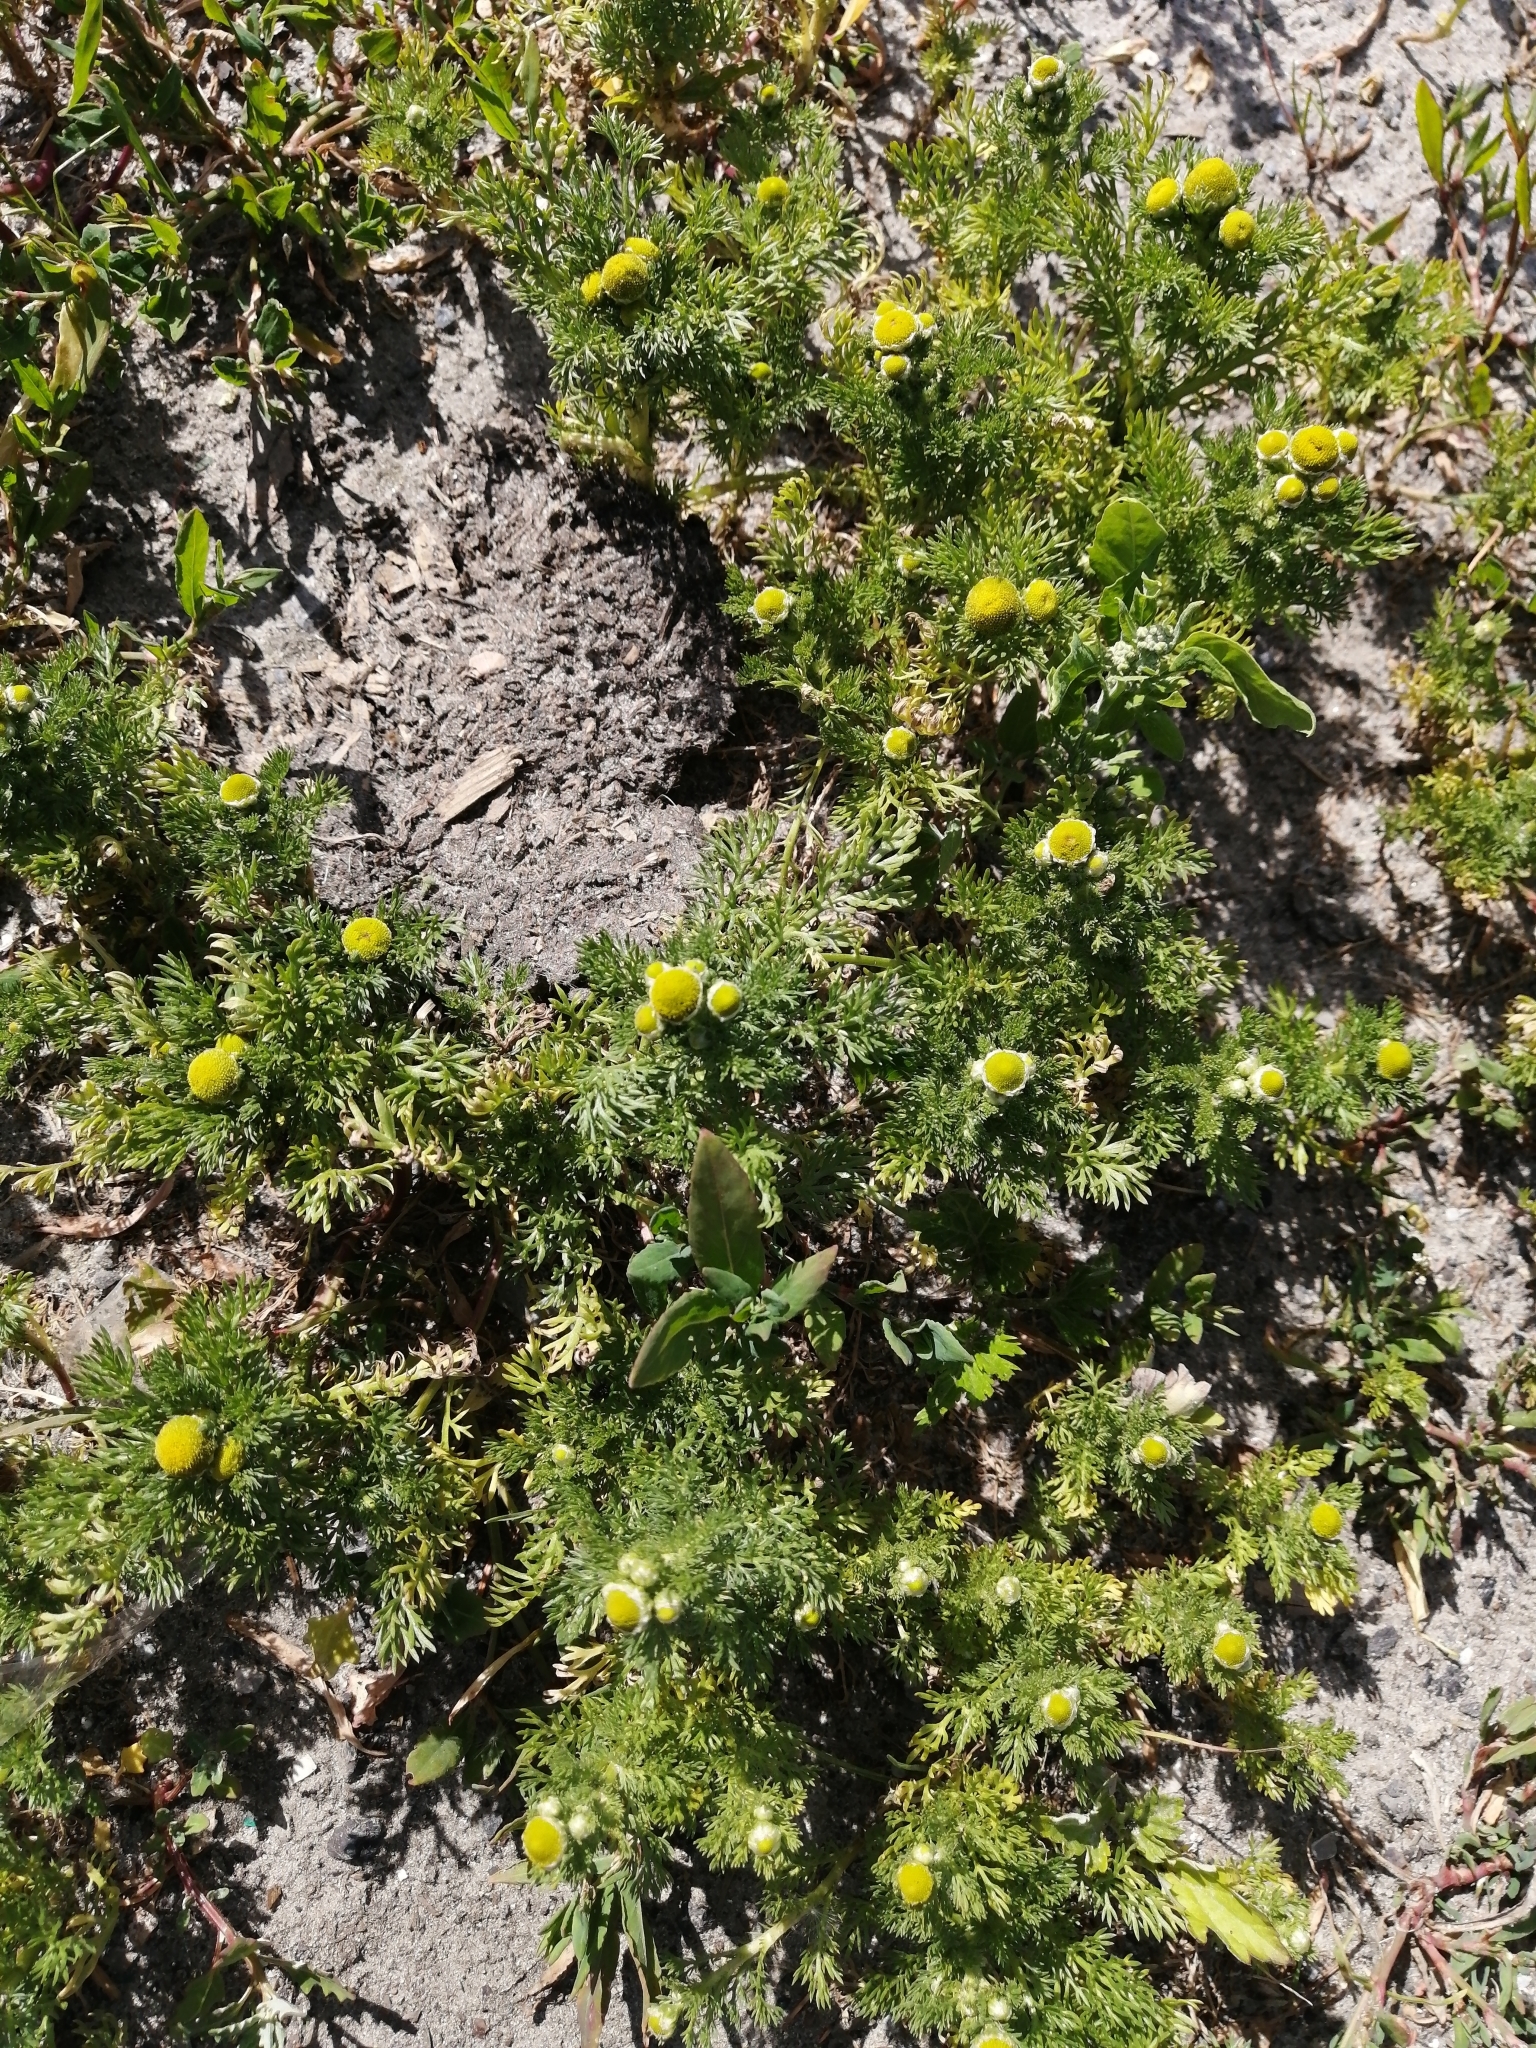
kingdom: Plantae
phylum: Tracheophyta
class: Magnoliopsida
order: Asterales
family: Asteraceae
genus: Matricaria
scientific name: Matricaria discoidea
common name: Disc mayweed
